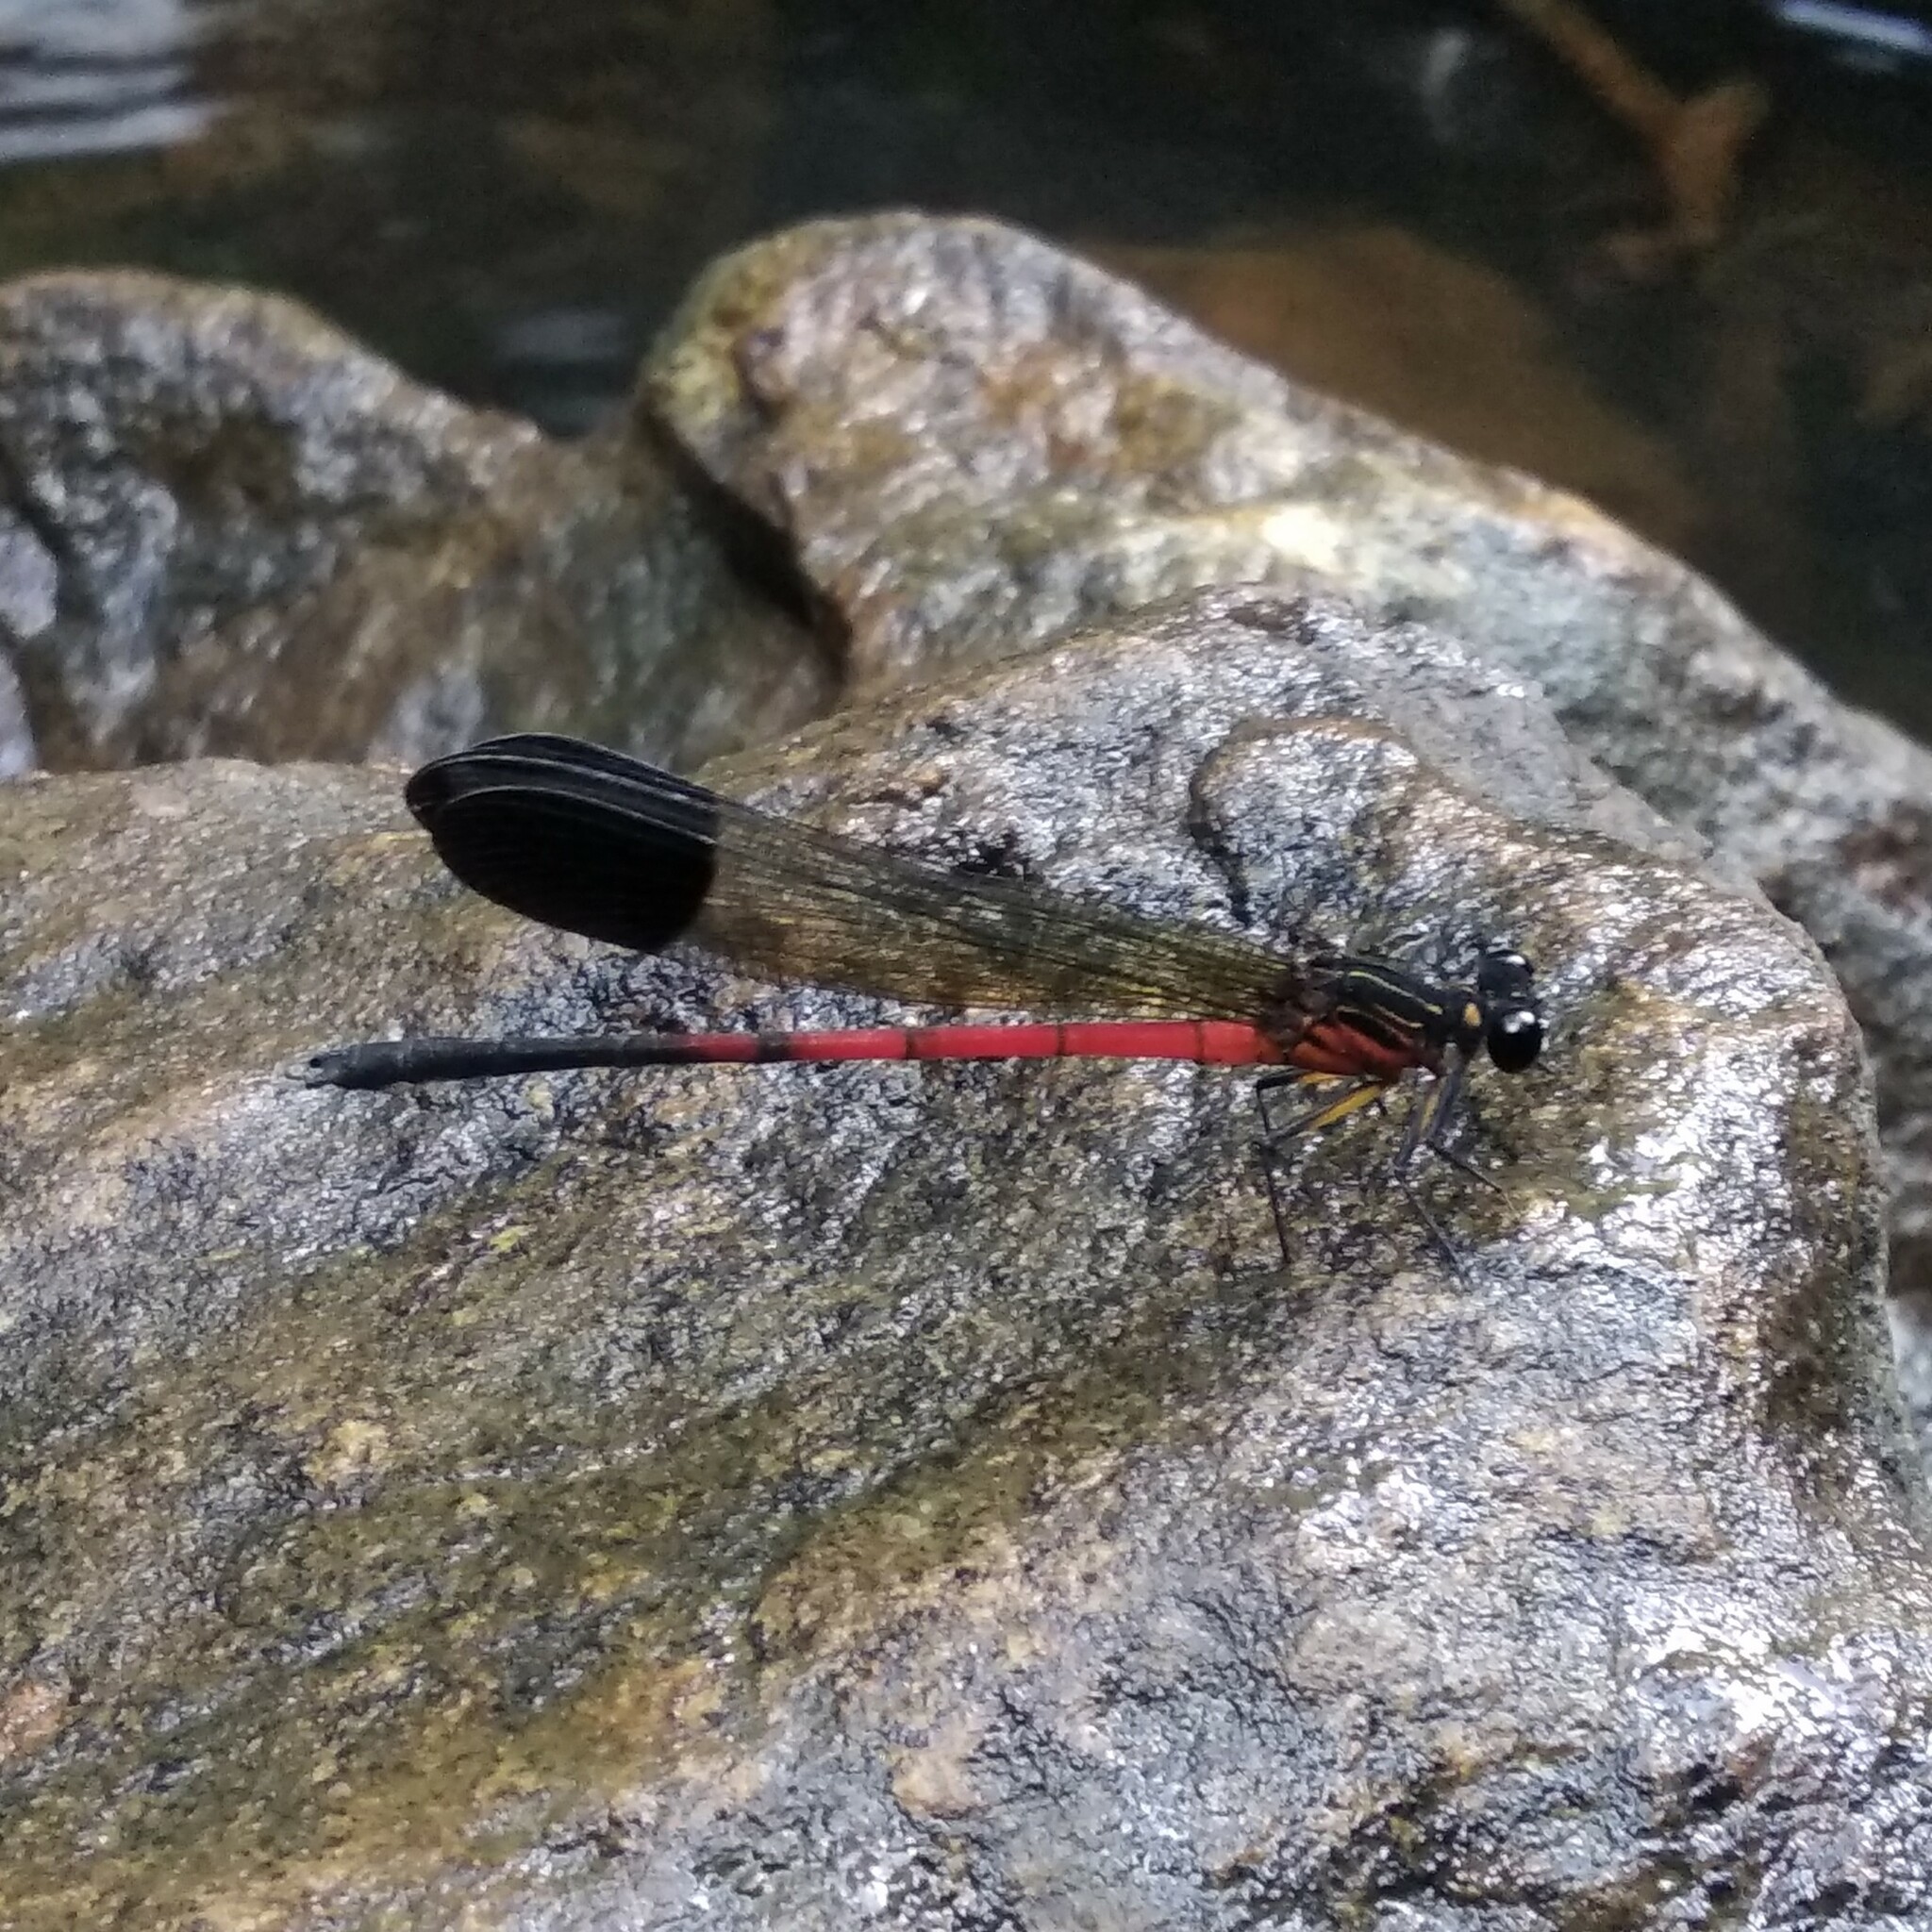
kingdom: Animalia
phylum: Arthropoda
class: Insecta
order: Odonata
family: Euphaeidae
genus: Euphaea
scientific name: Euphaea dispar
